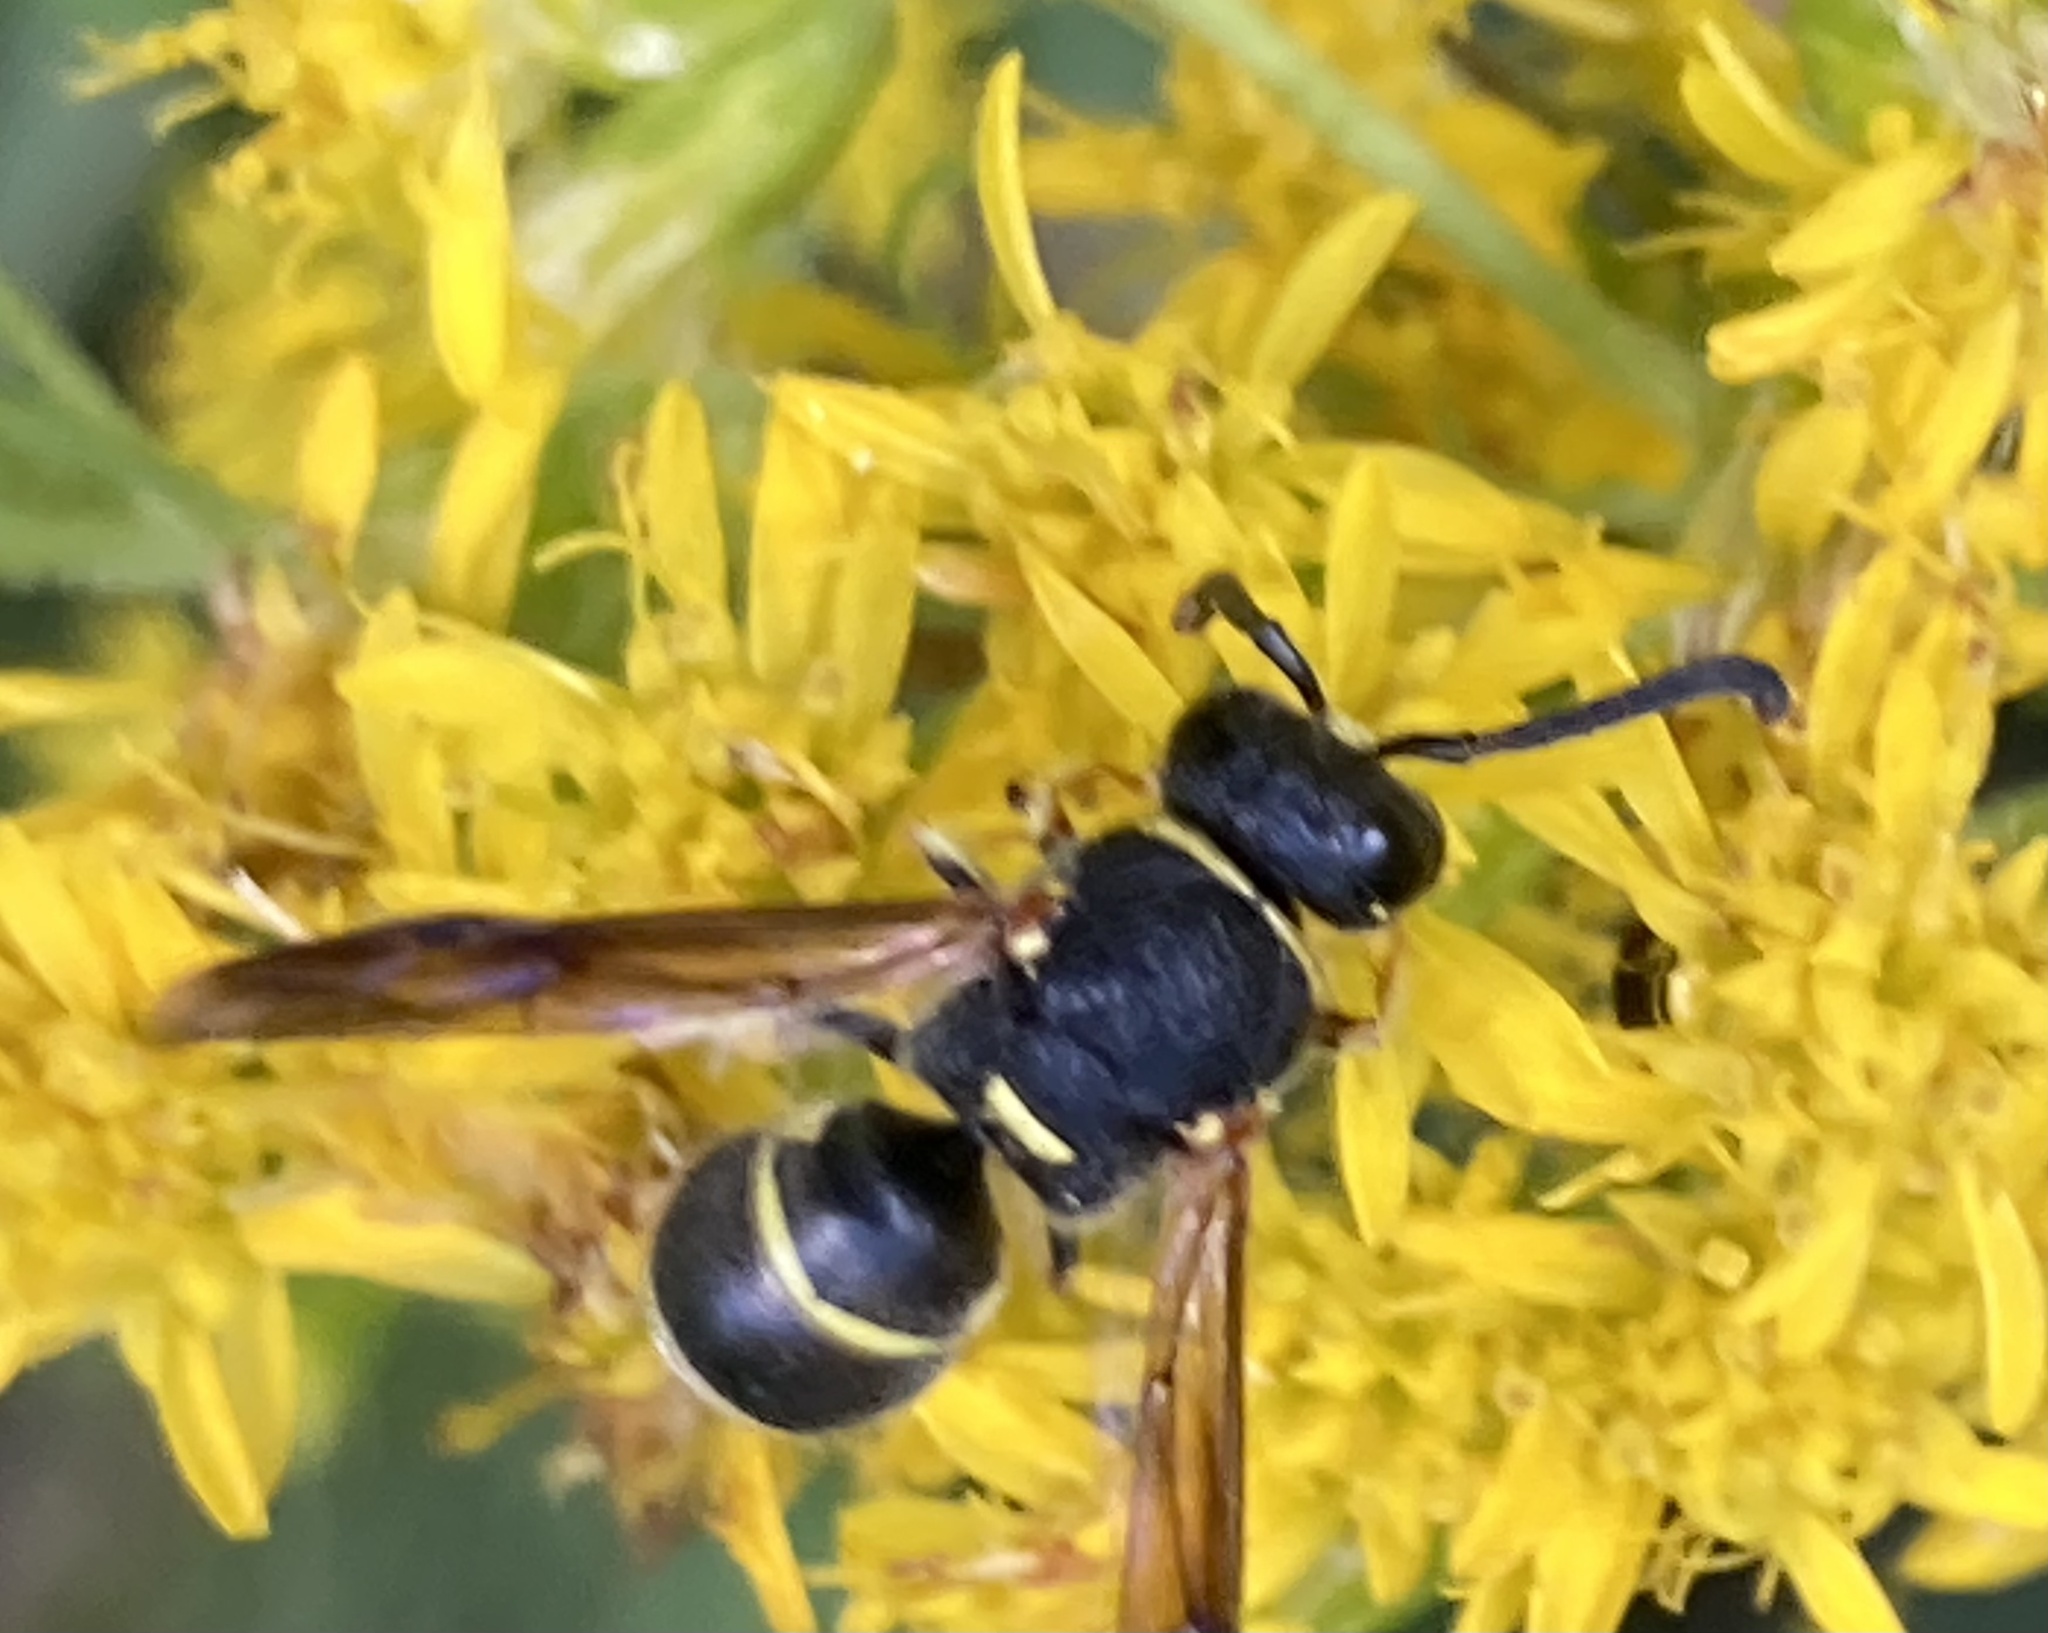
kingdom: Animalia
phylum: Arthropoda
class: Insecta
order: Hymenoptera
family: Eumenidae
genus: Euodynerus
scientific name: Euodynerus foraminatus
